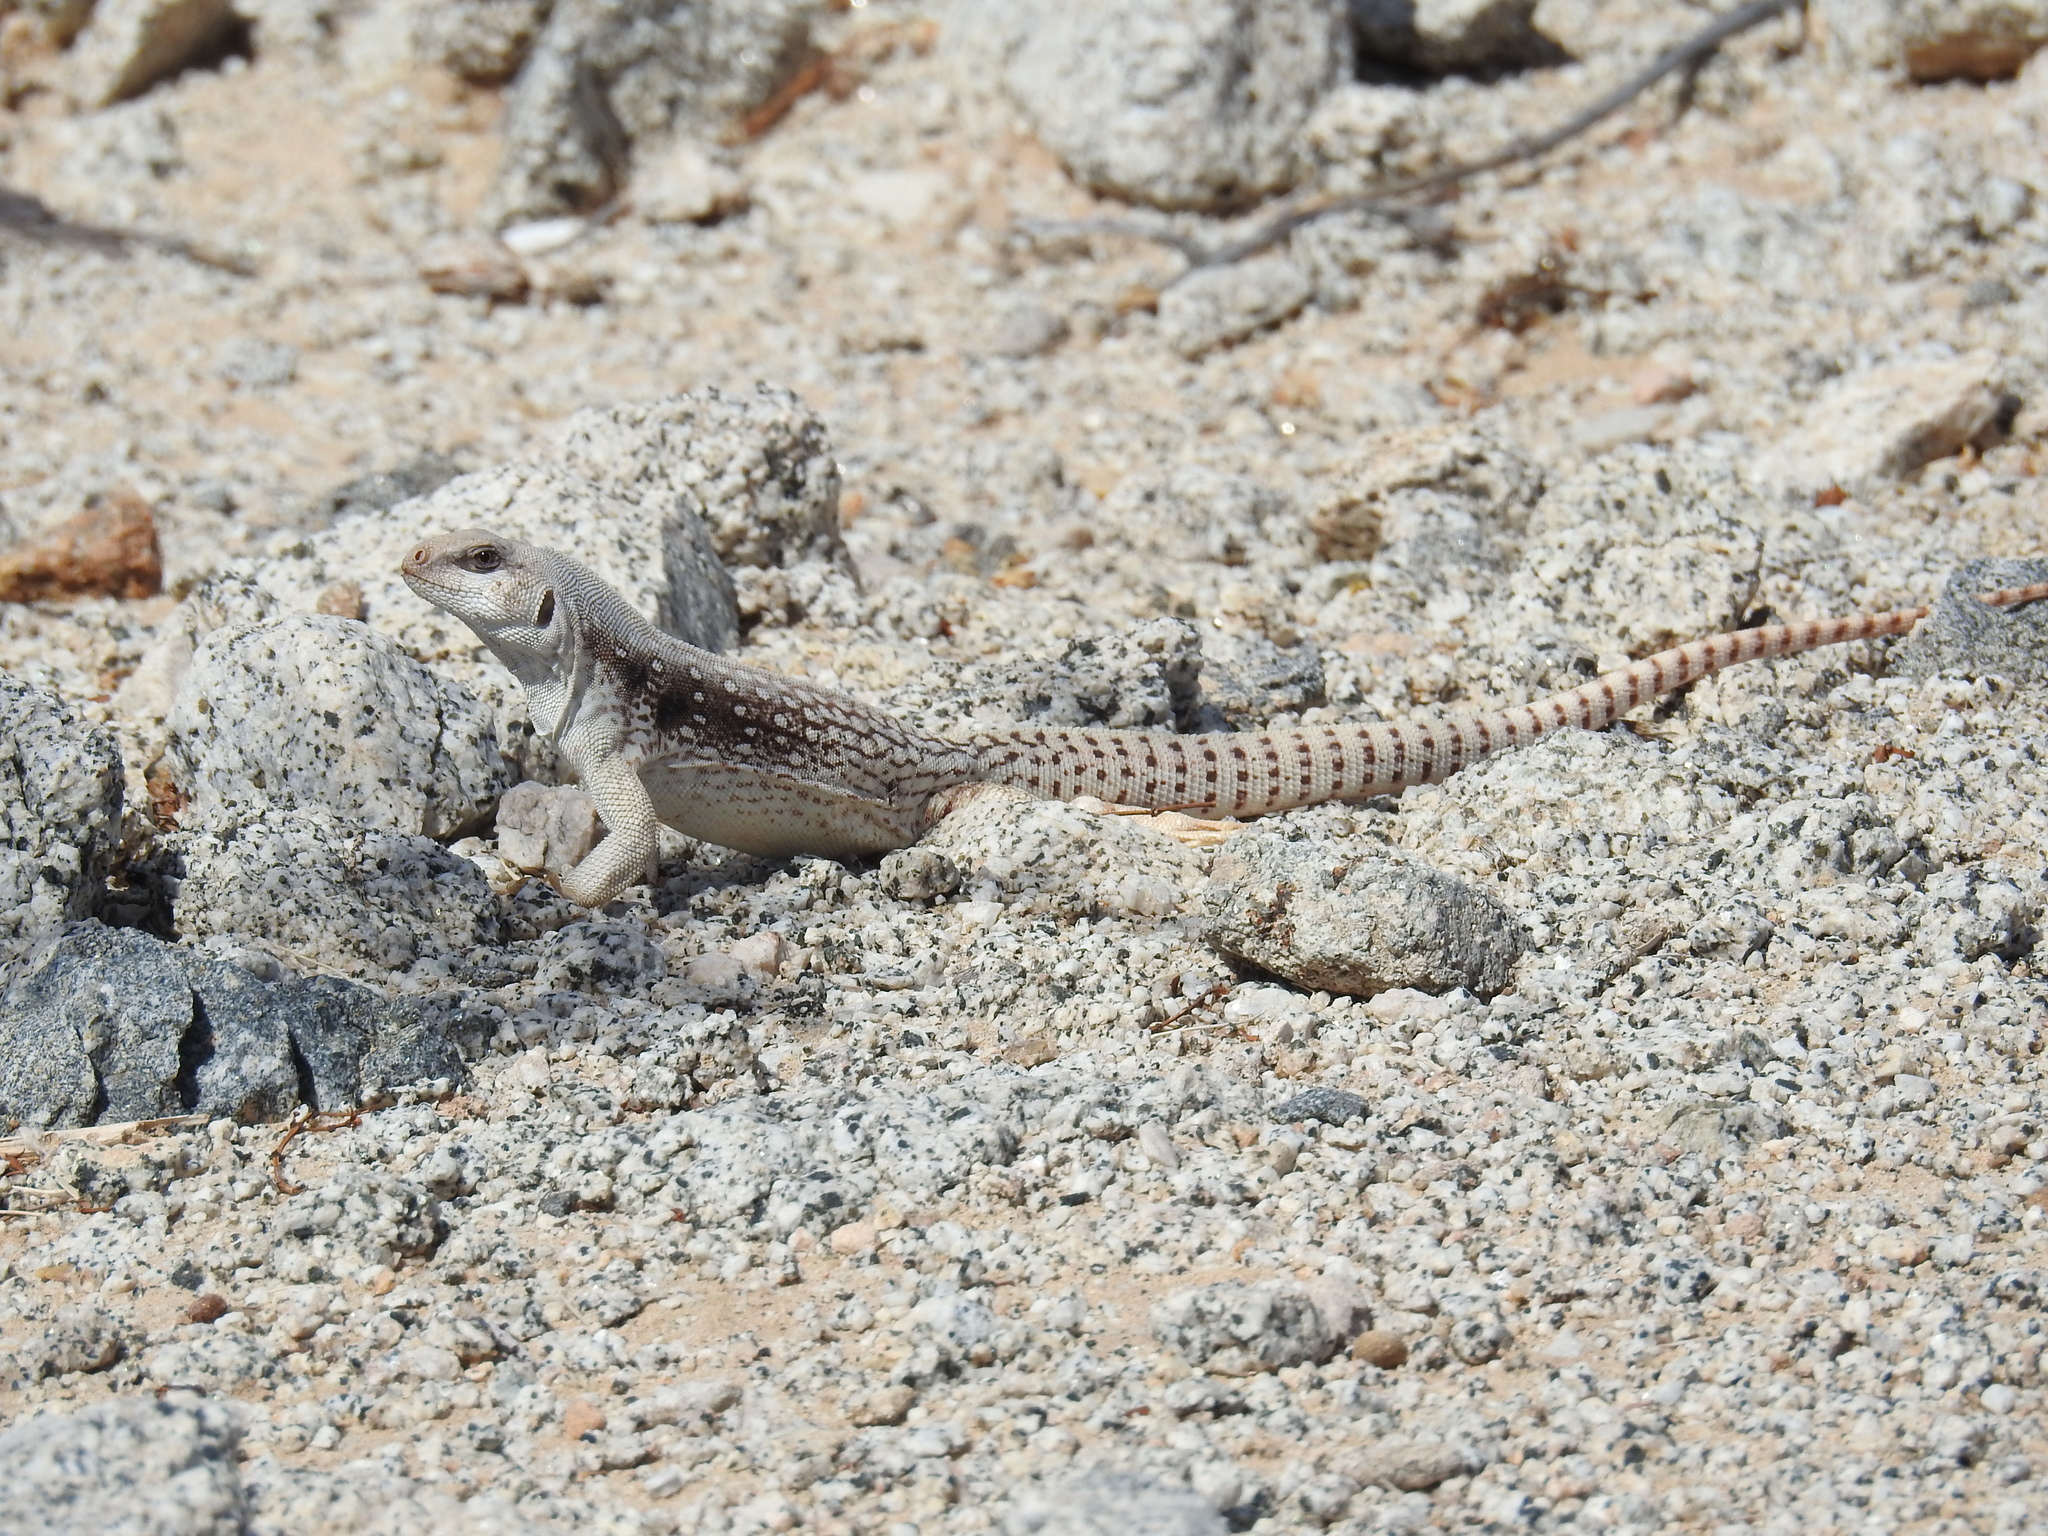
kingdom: Animalia
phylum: Chordata
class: Squamata
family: Iguanidae
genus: Dipsosaurus
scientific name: Dipsosaurus dorsalis
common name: Desert iguana
